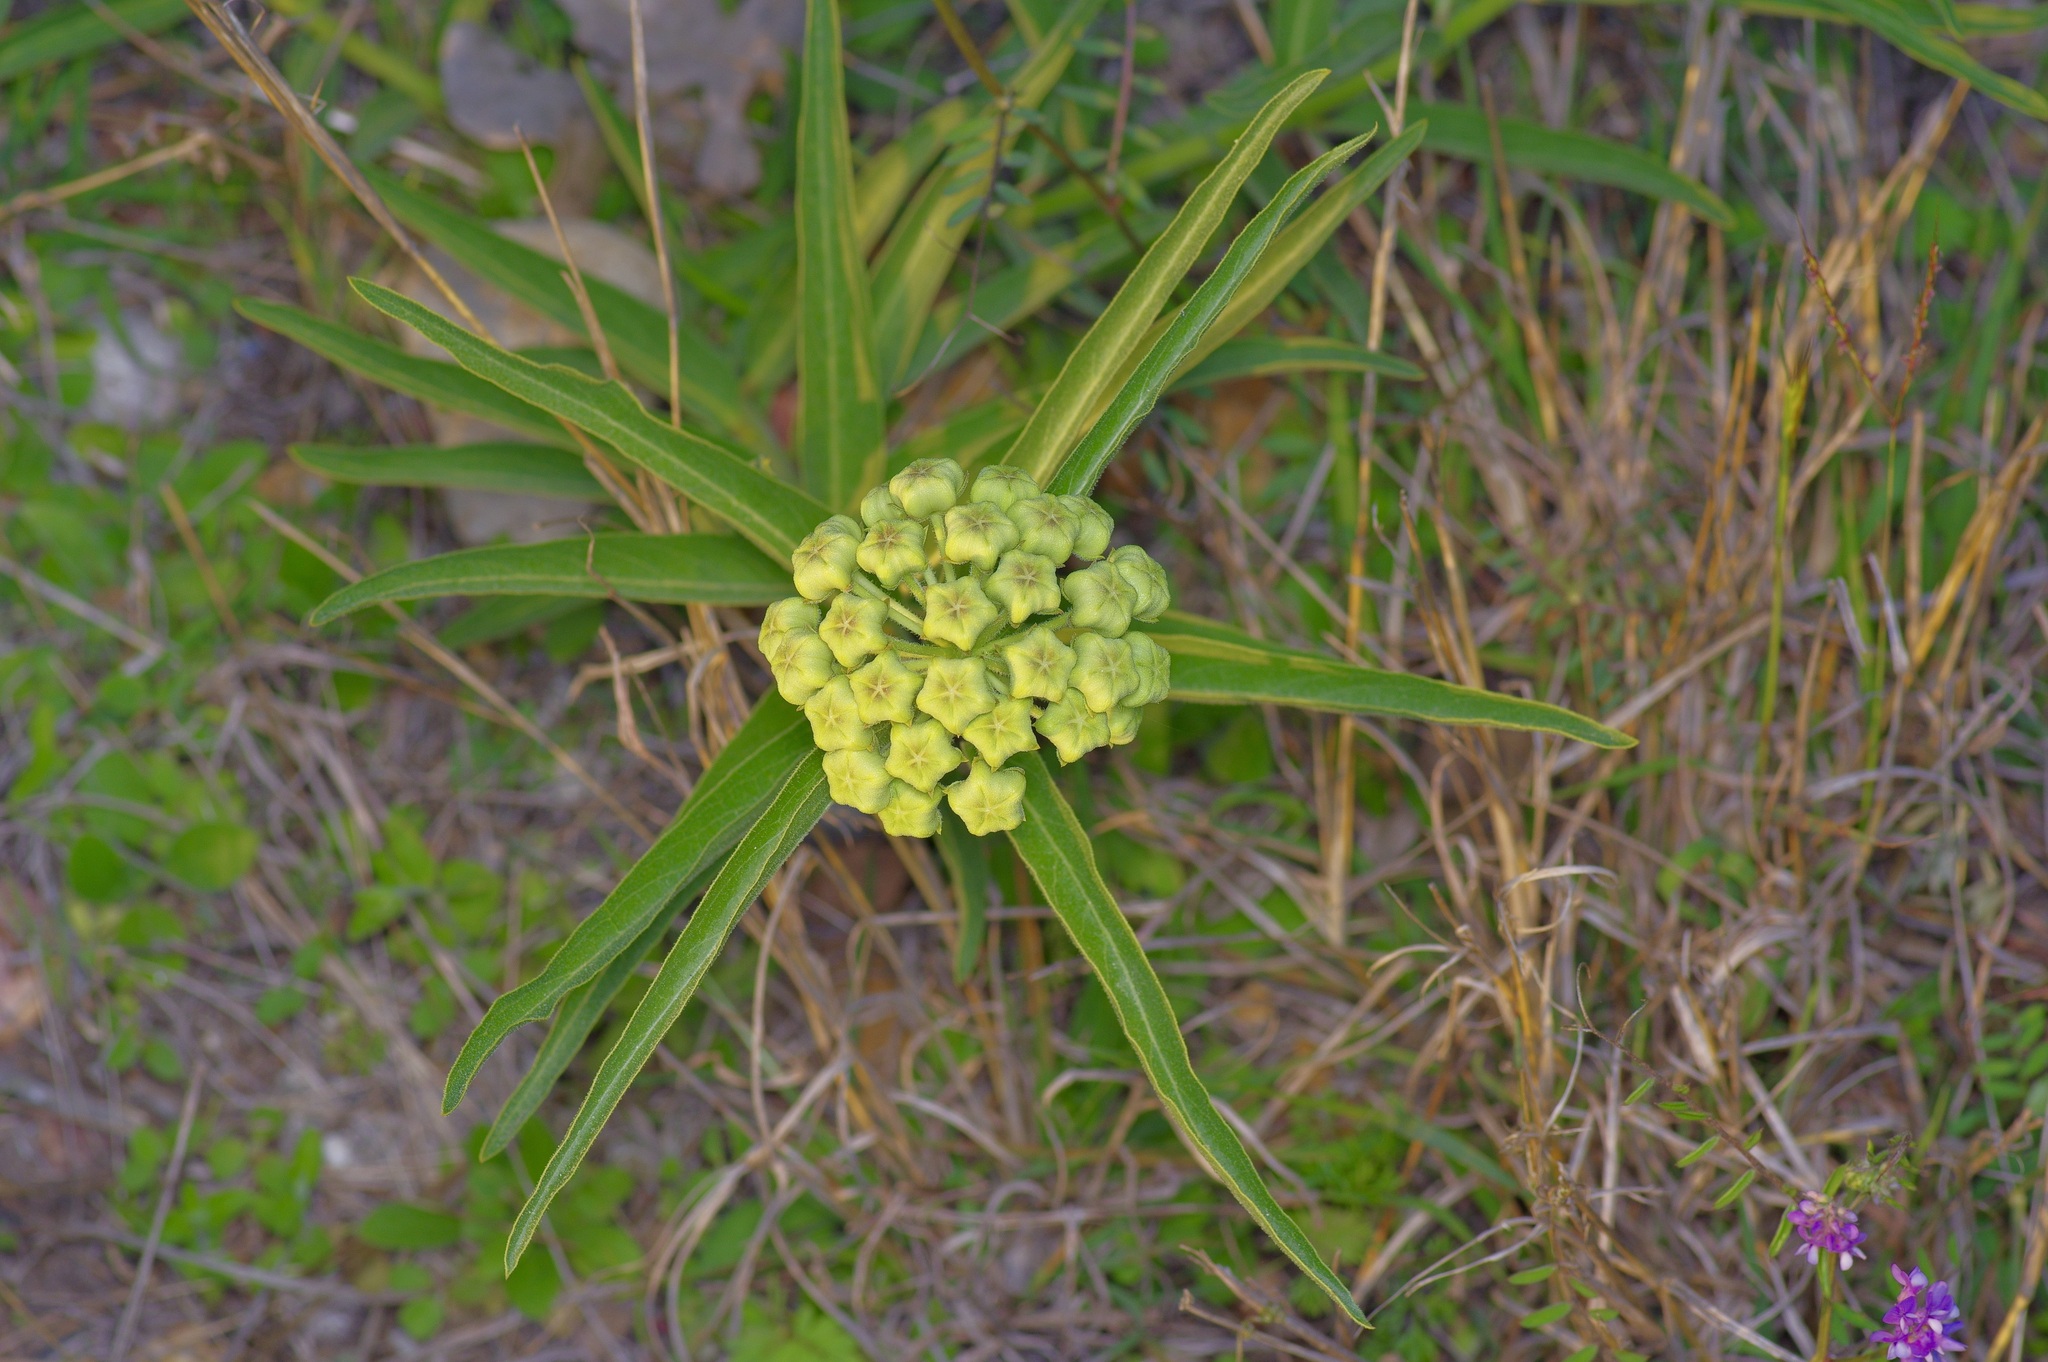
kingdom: Plantae
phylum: Tracheophyta
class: Magnoliopsida
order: Gentianales
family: Apocynaceae
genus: Asclepias
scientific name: Asclepias asperula
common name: Antelope horns
